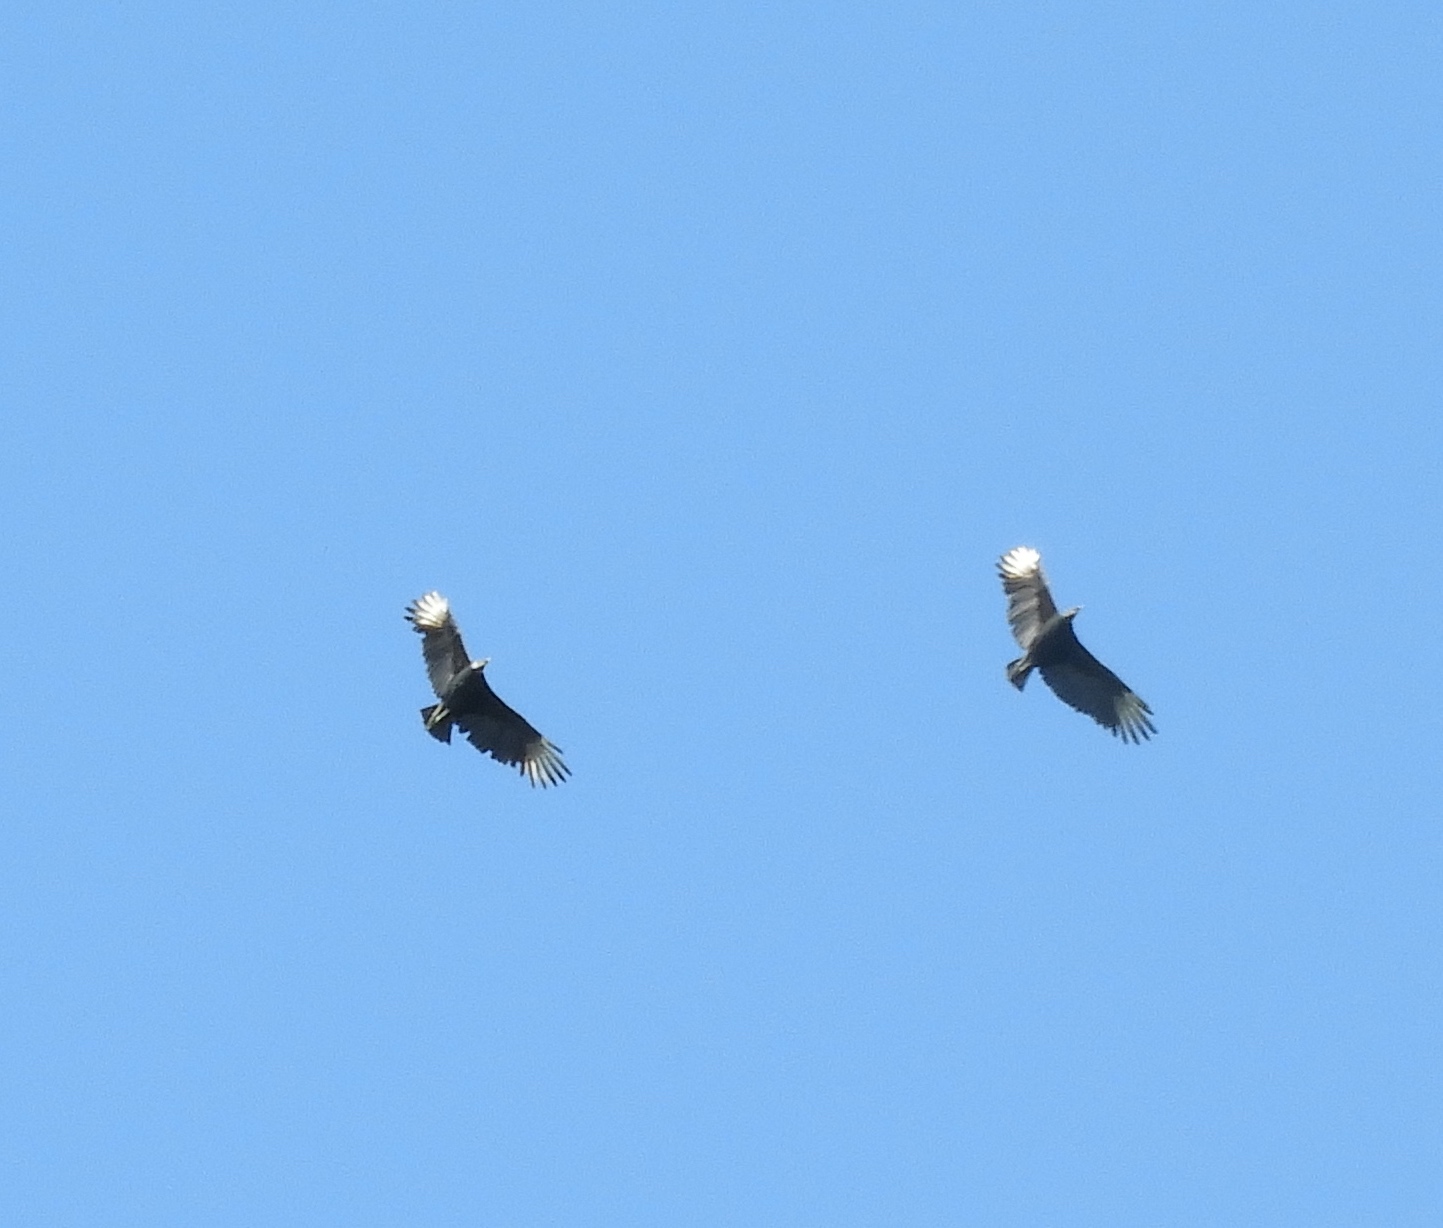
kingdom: Animalia
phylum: Chordata
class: Aves
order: Accipitriformes
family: Cathartidae
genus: Coragyps
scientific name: Coragyps atratus
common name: Black vulture
